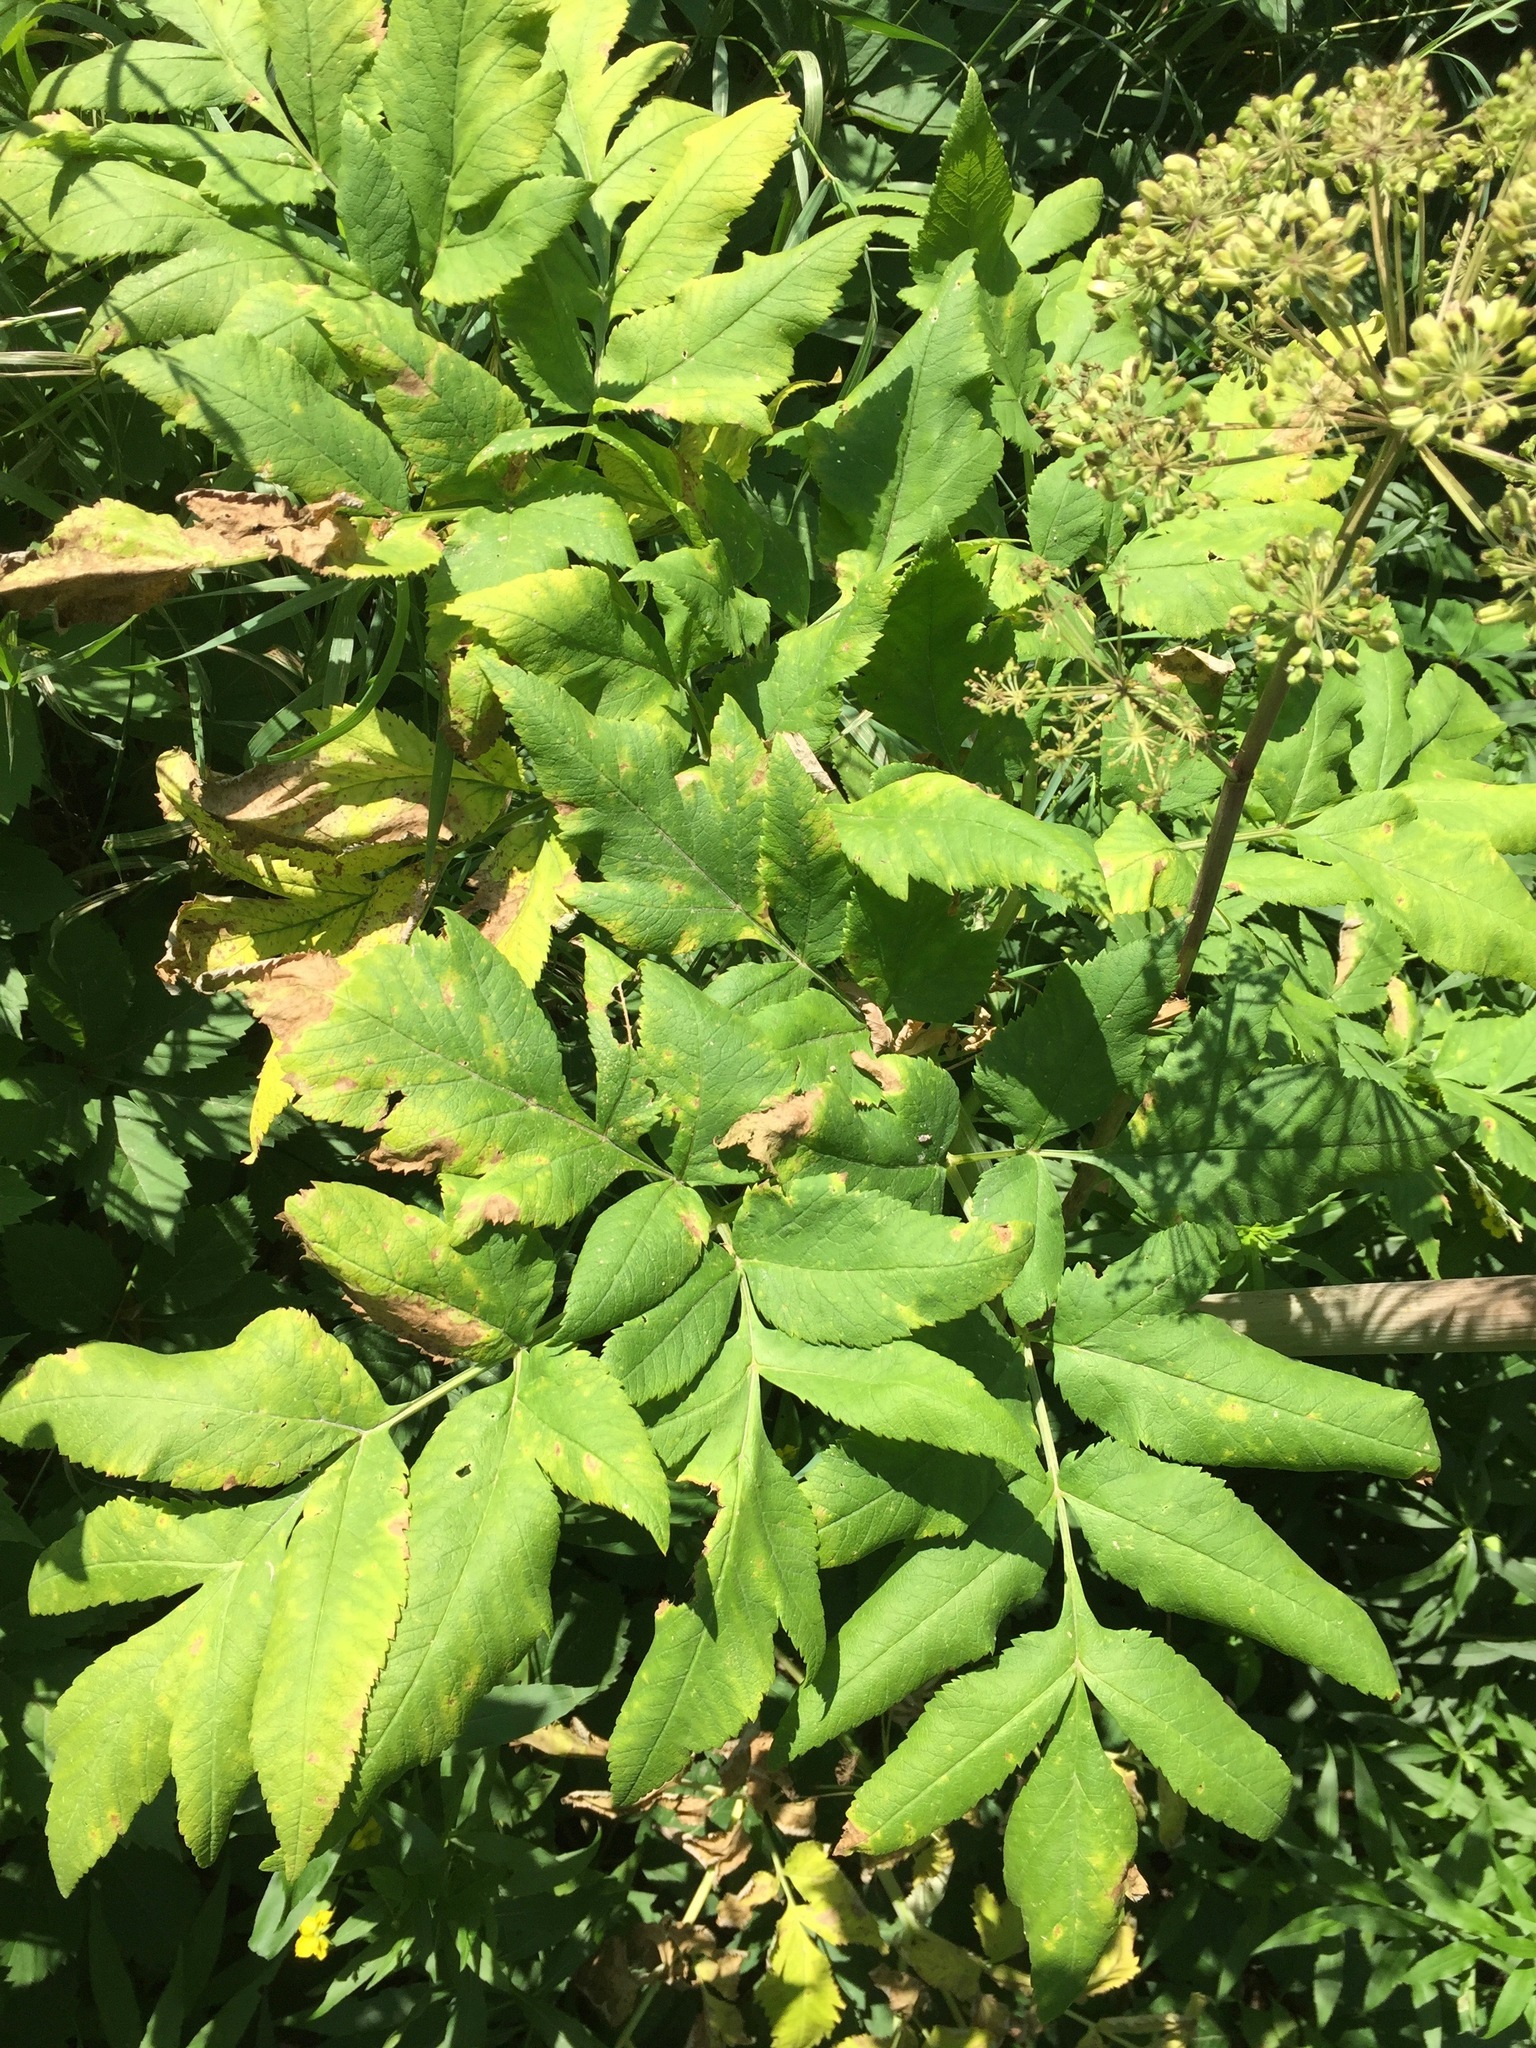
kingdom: Plantae
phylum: Tracheophyta
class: Magnoliopsida
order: Apiales
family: Apiaceae
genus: Angelica
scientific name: Angelica atropurpurea
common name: Great angelica
